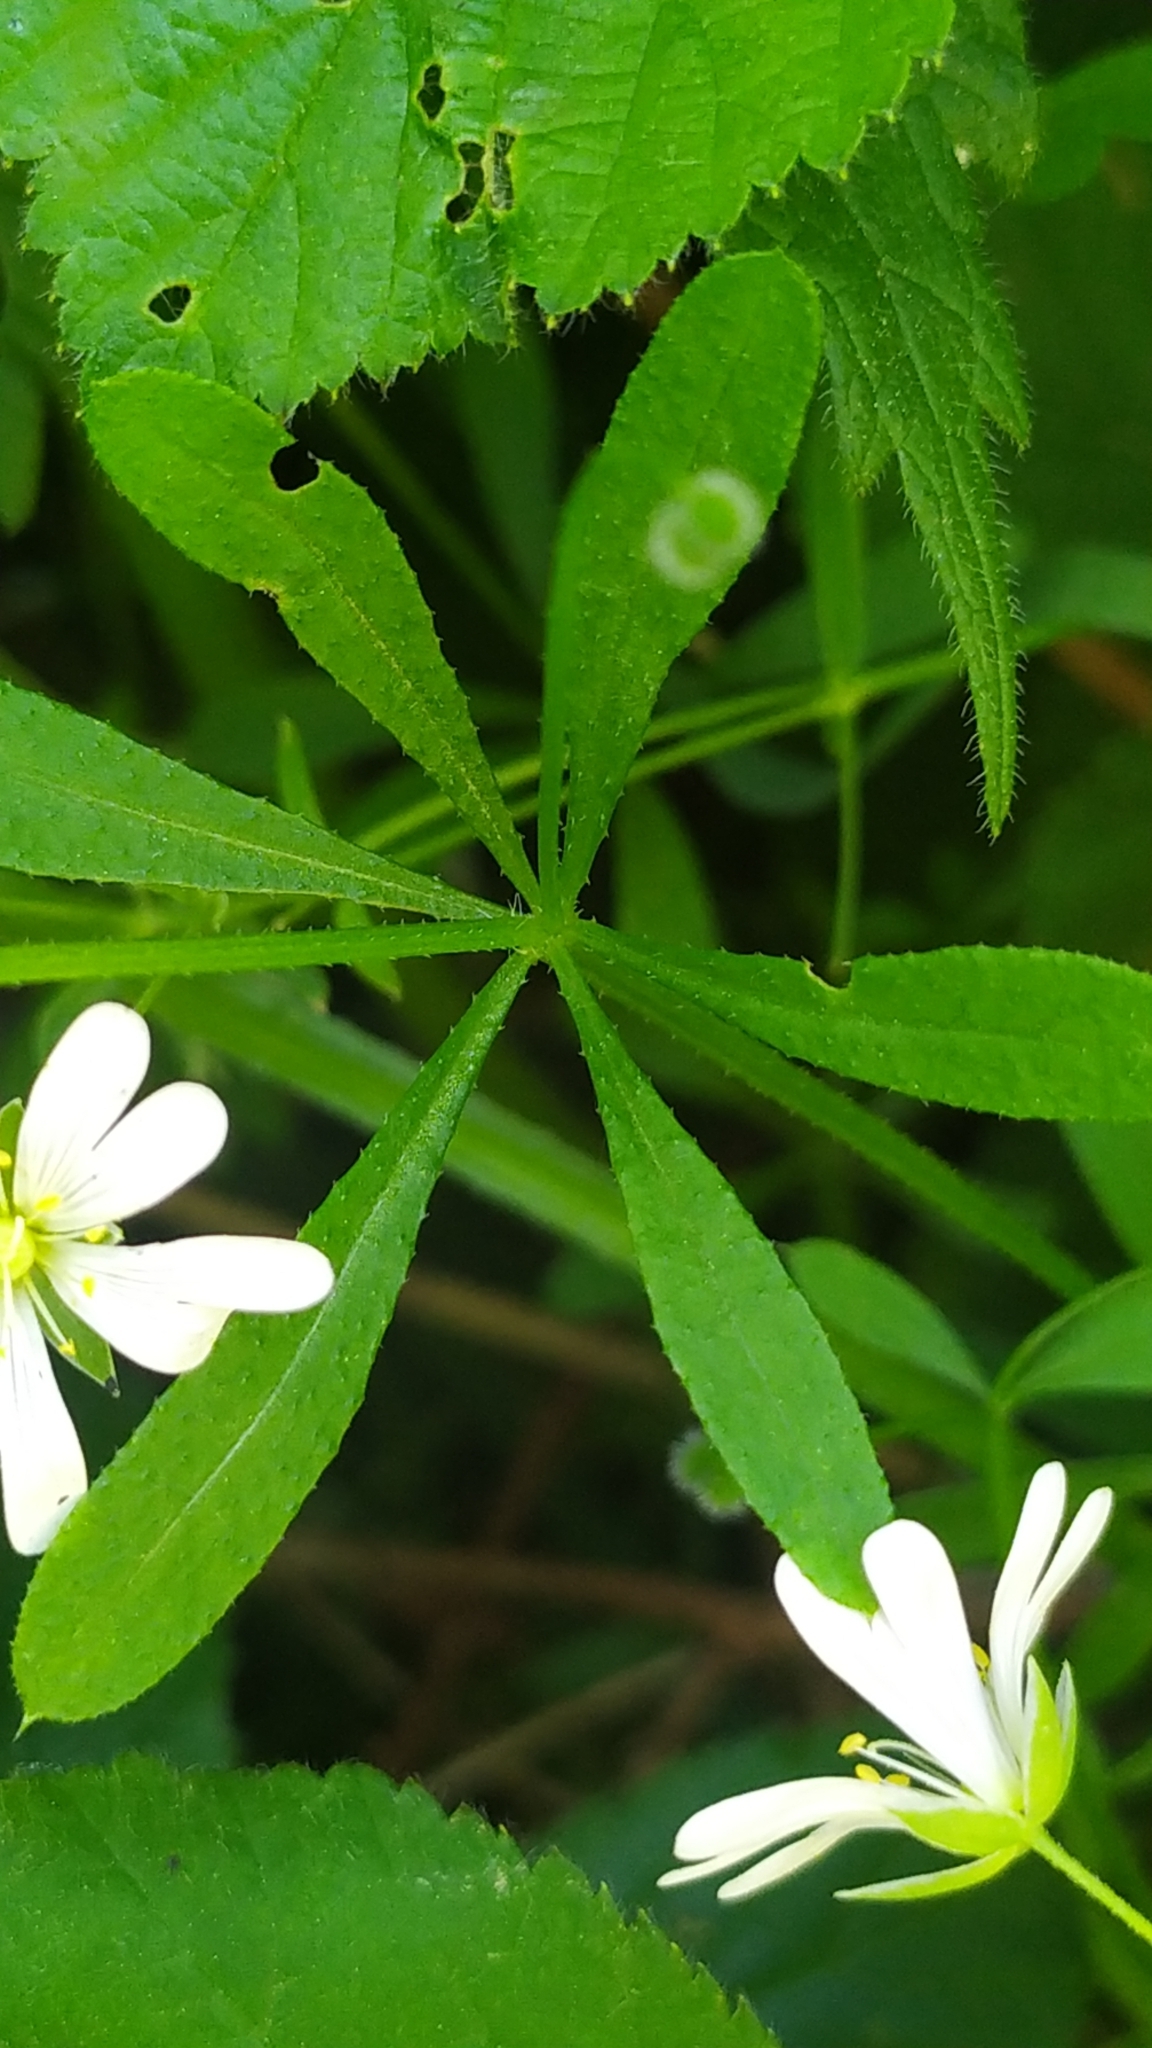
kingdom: Plantae
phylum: Tracheophyta
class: Magnoliopsida
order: Caryophyllales
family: Caryophyllaceae
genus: Rabelera
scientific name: Rabelera holostea
